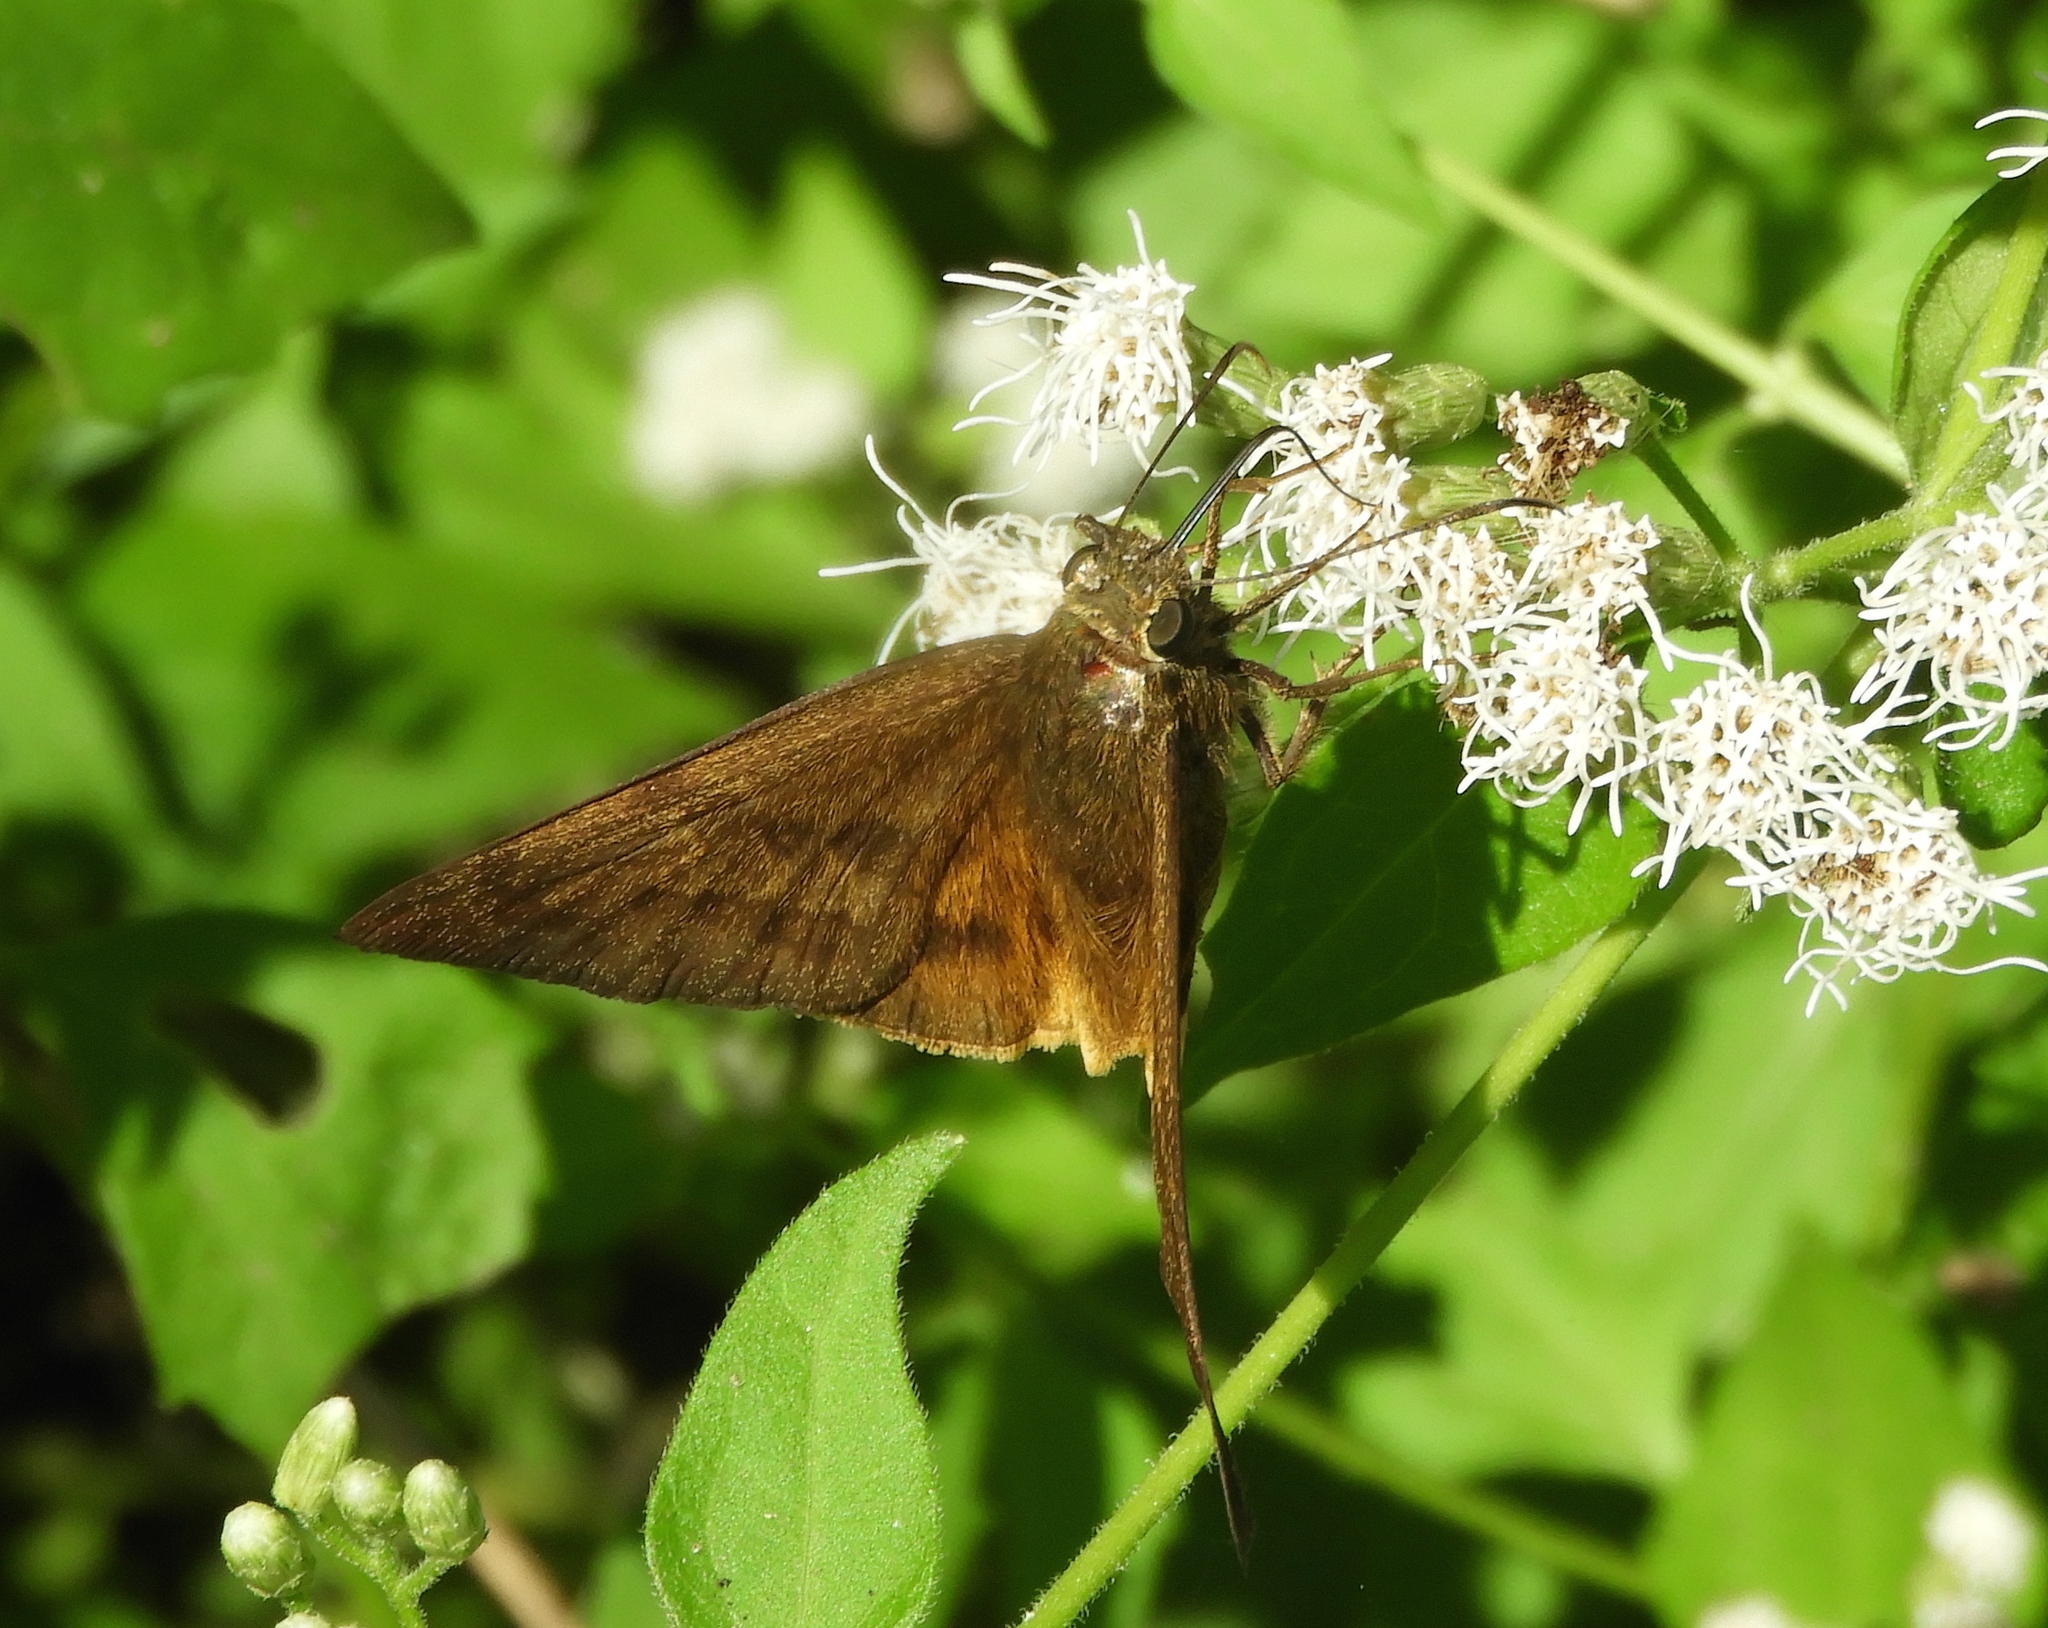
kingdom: Animalia
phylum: Arthropoda
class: Insecta
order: Lepidoptera
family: Hesperiidae
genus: Astraptes
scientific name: Astraptes anaphus
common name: Yellow-tipped flasher
